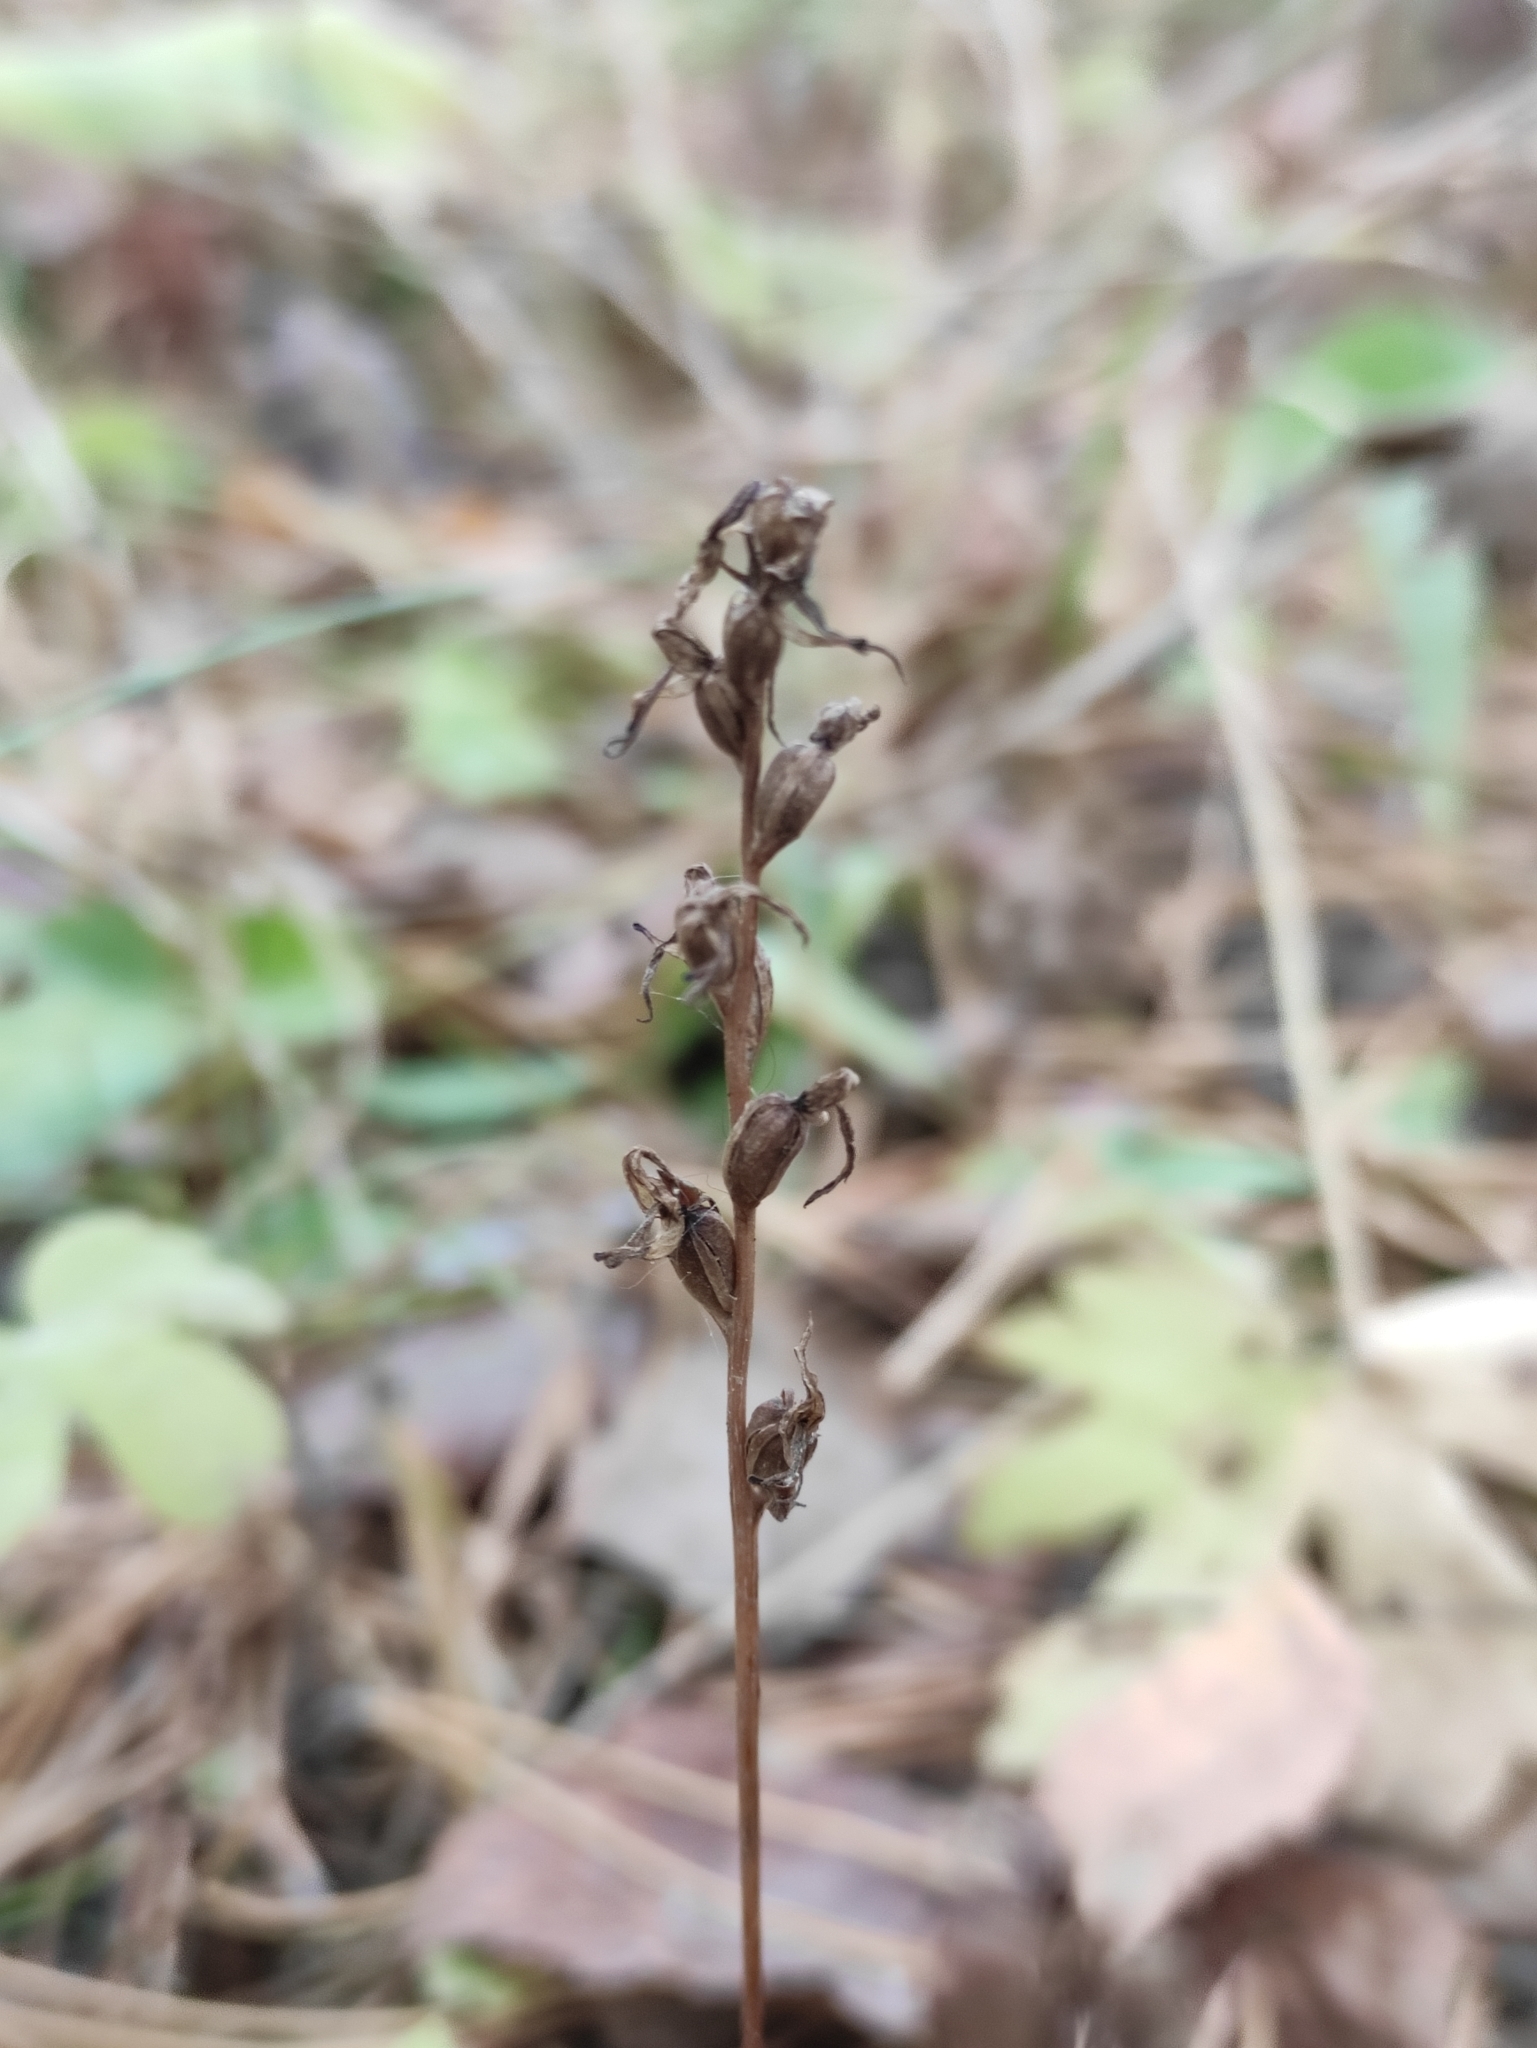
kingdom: Plantae
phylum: Tracheophyta
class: Liliopsida
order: Asparagales
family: Orchidaceae
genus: Hemipilia
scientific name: Hemipilia cucullata
